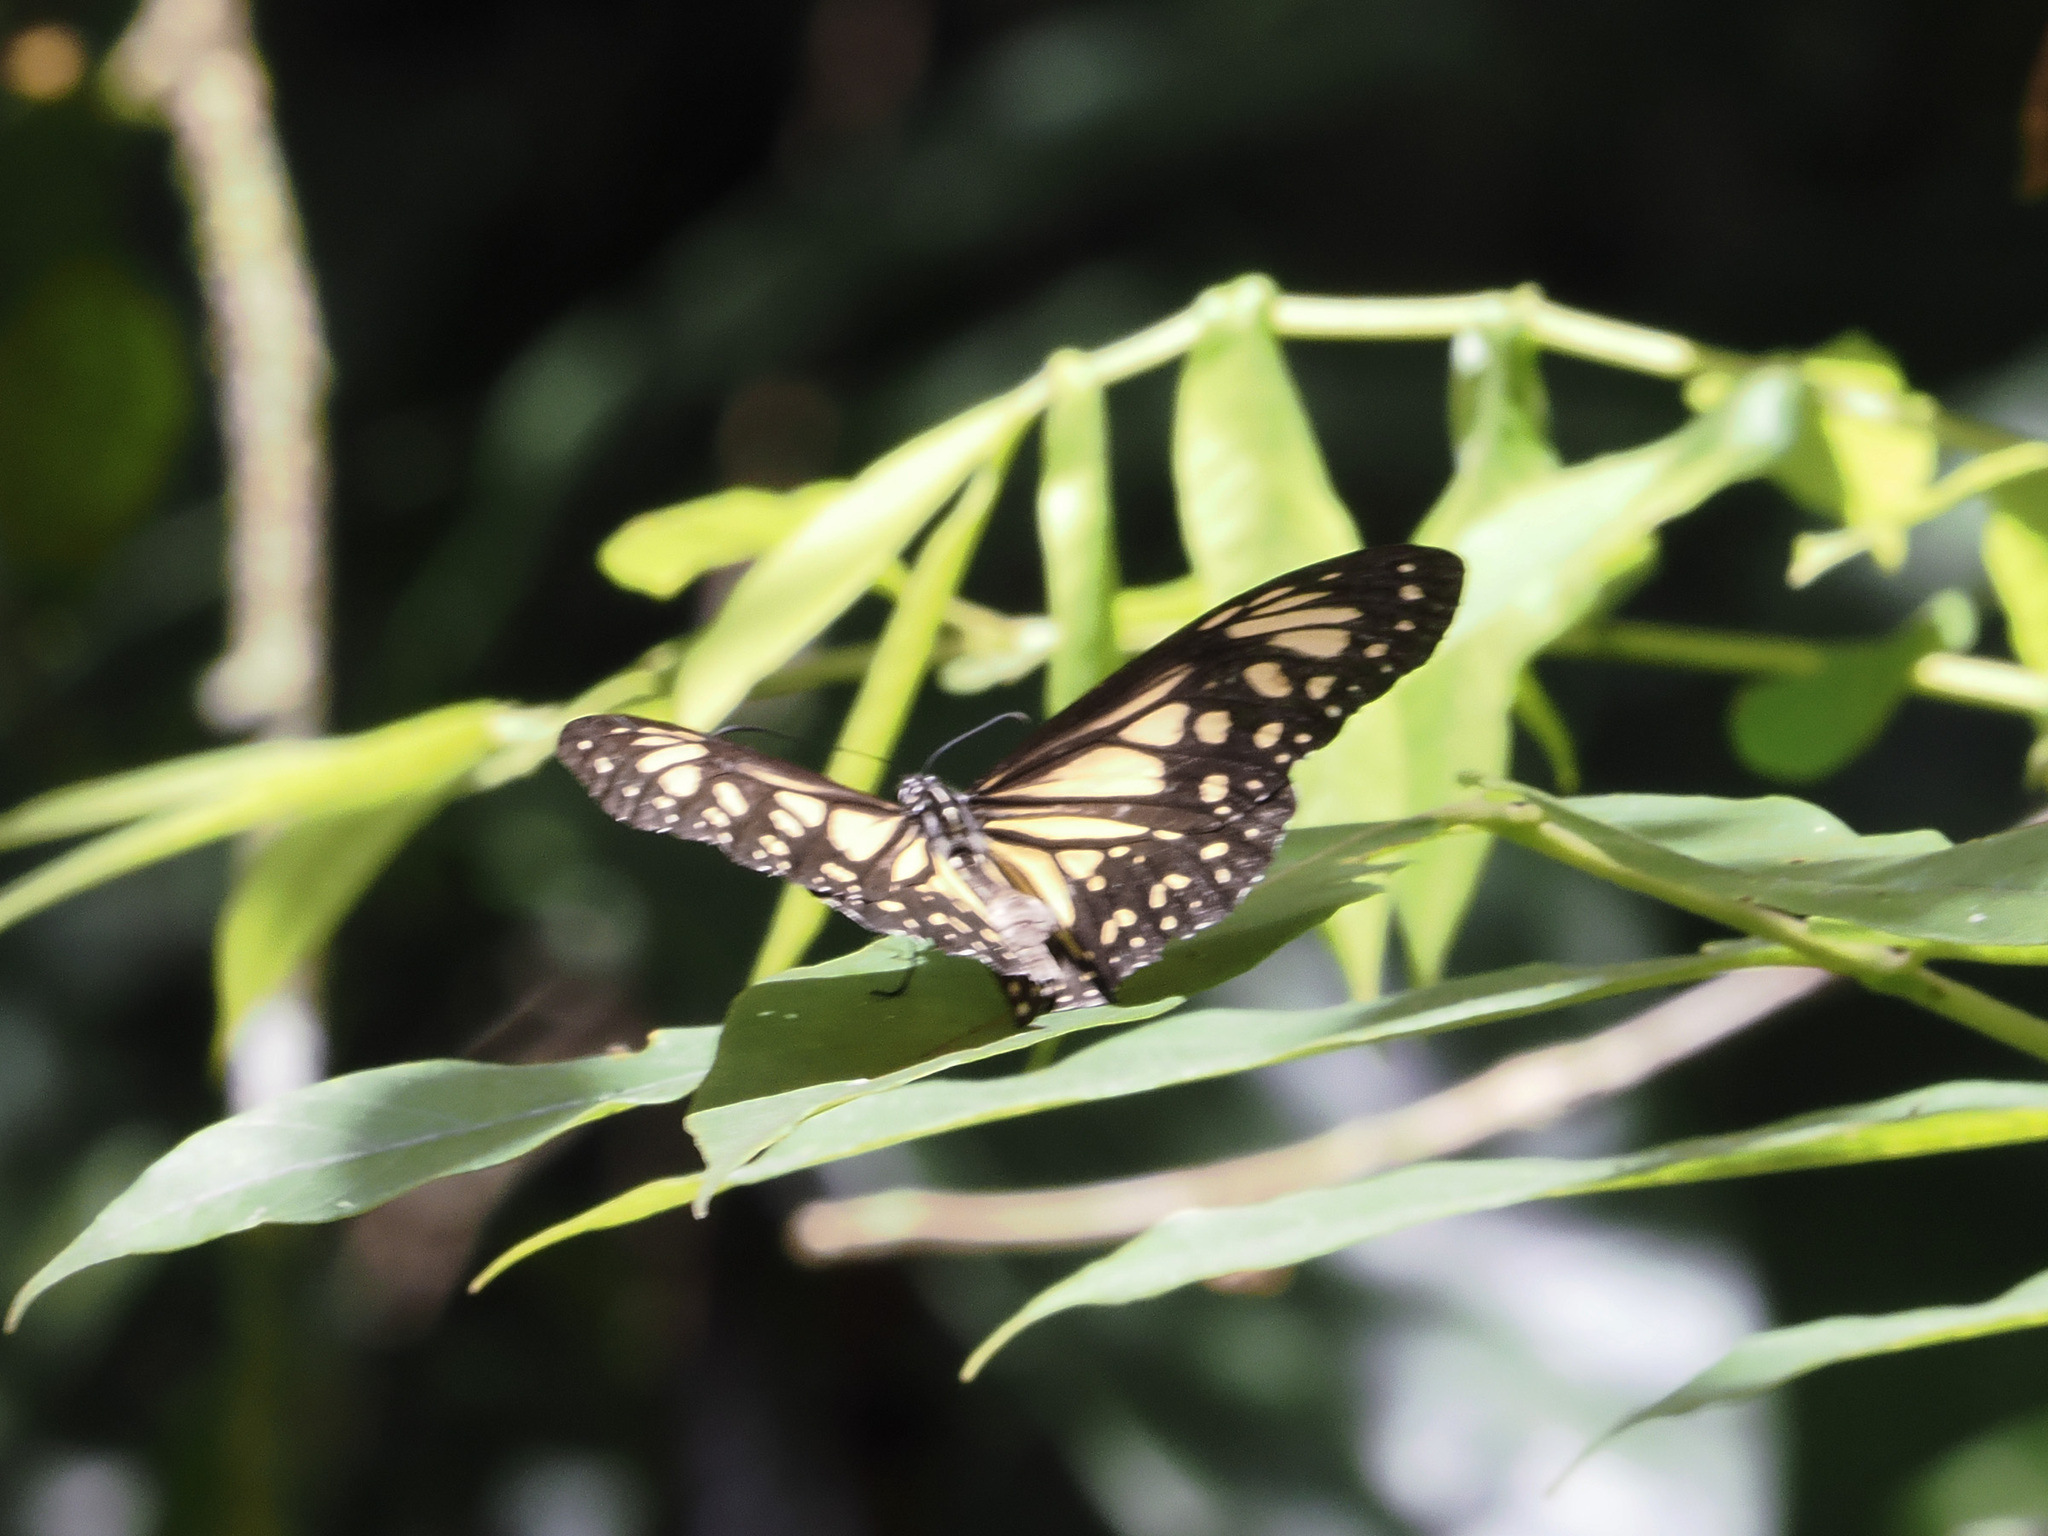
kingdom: Animalia
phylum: Arthropoda
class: Insecta
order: Lepidoptera
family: Nymphalidae
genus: Parantica
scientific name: Parantica menadensis
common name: Manado yellow tiger
